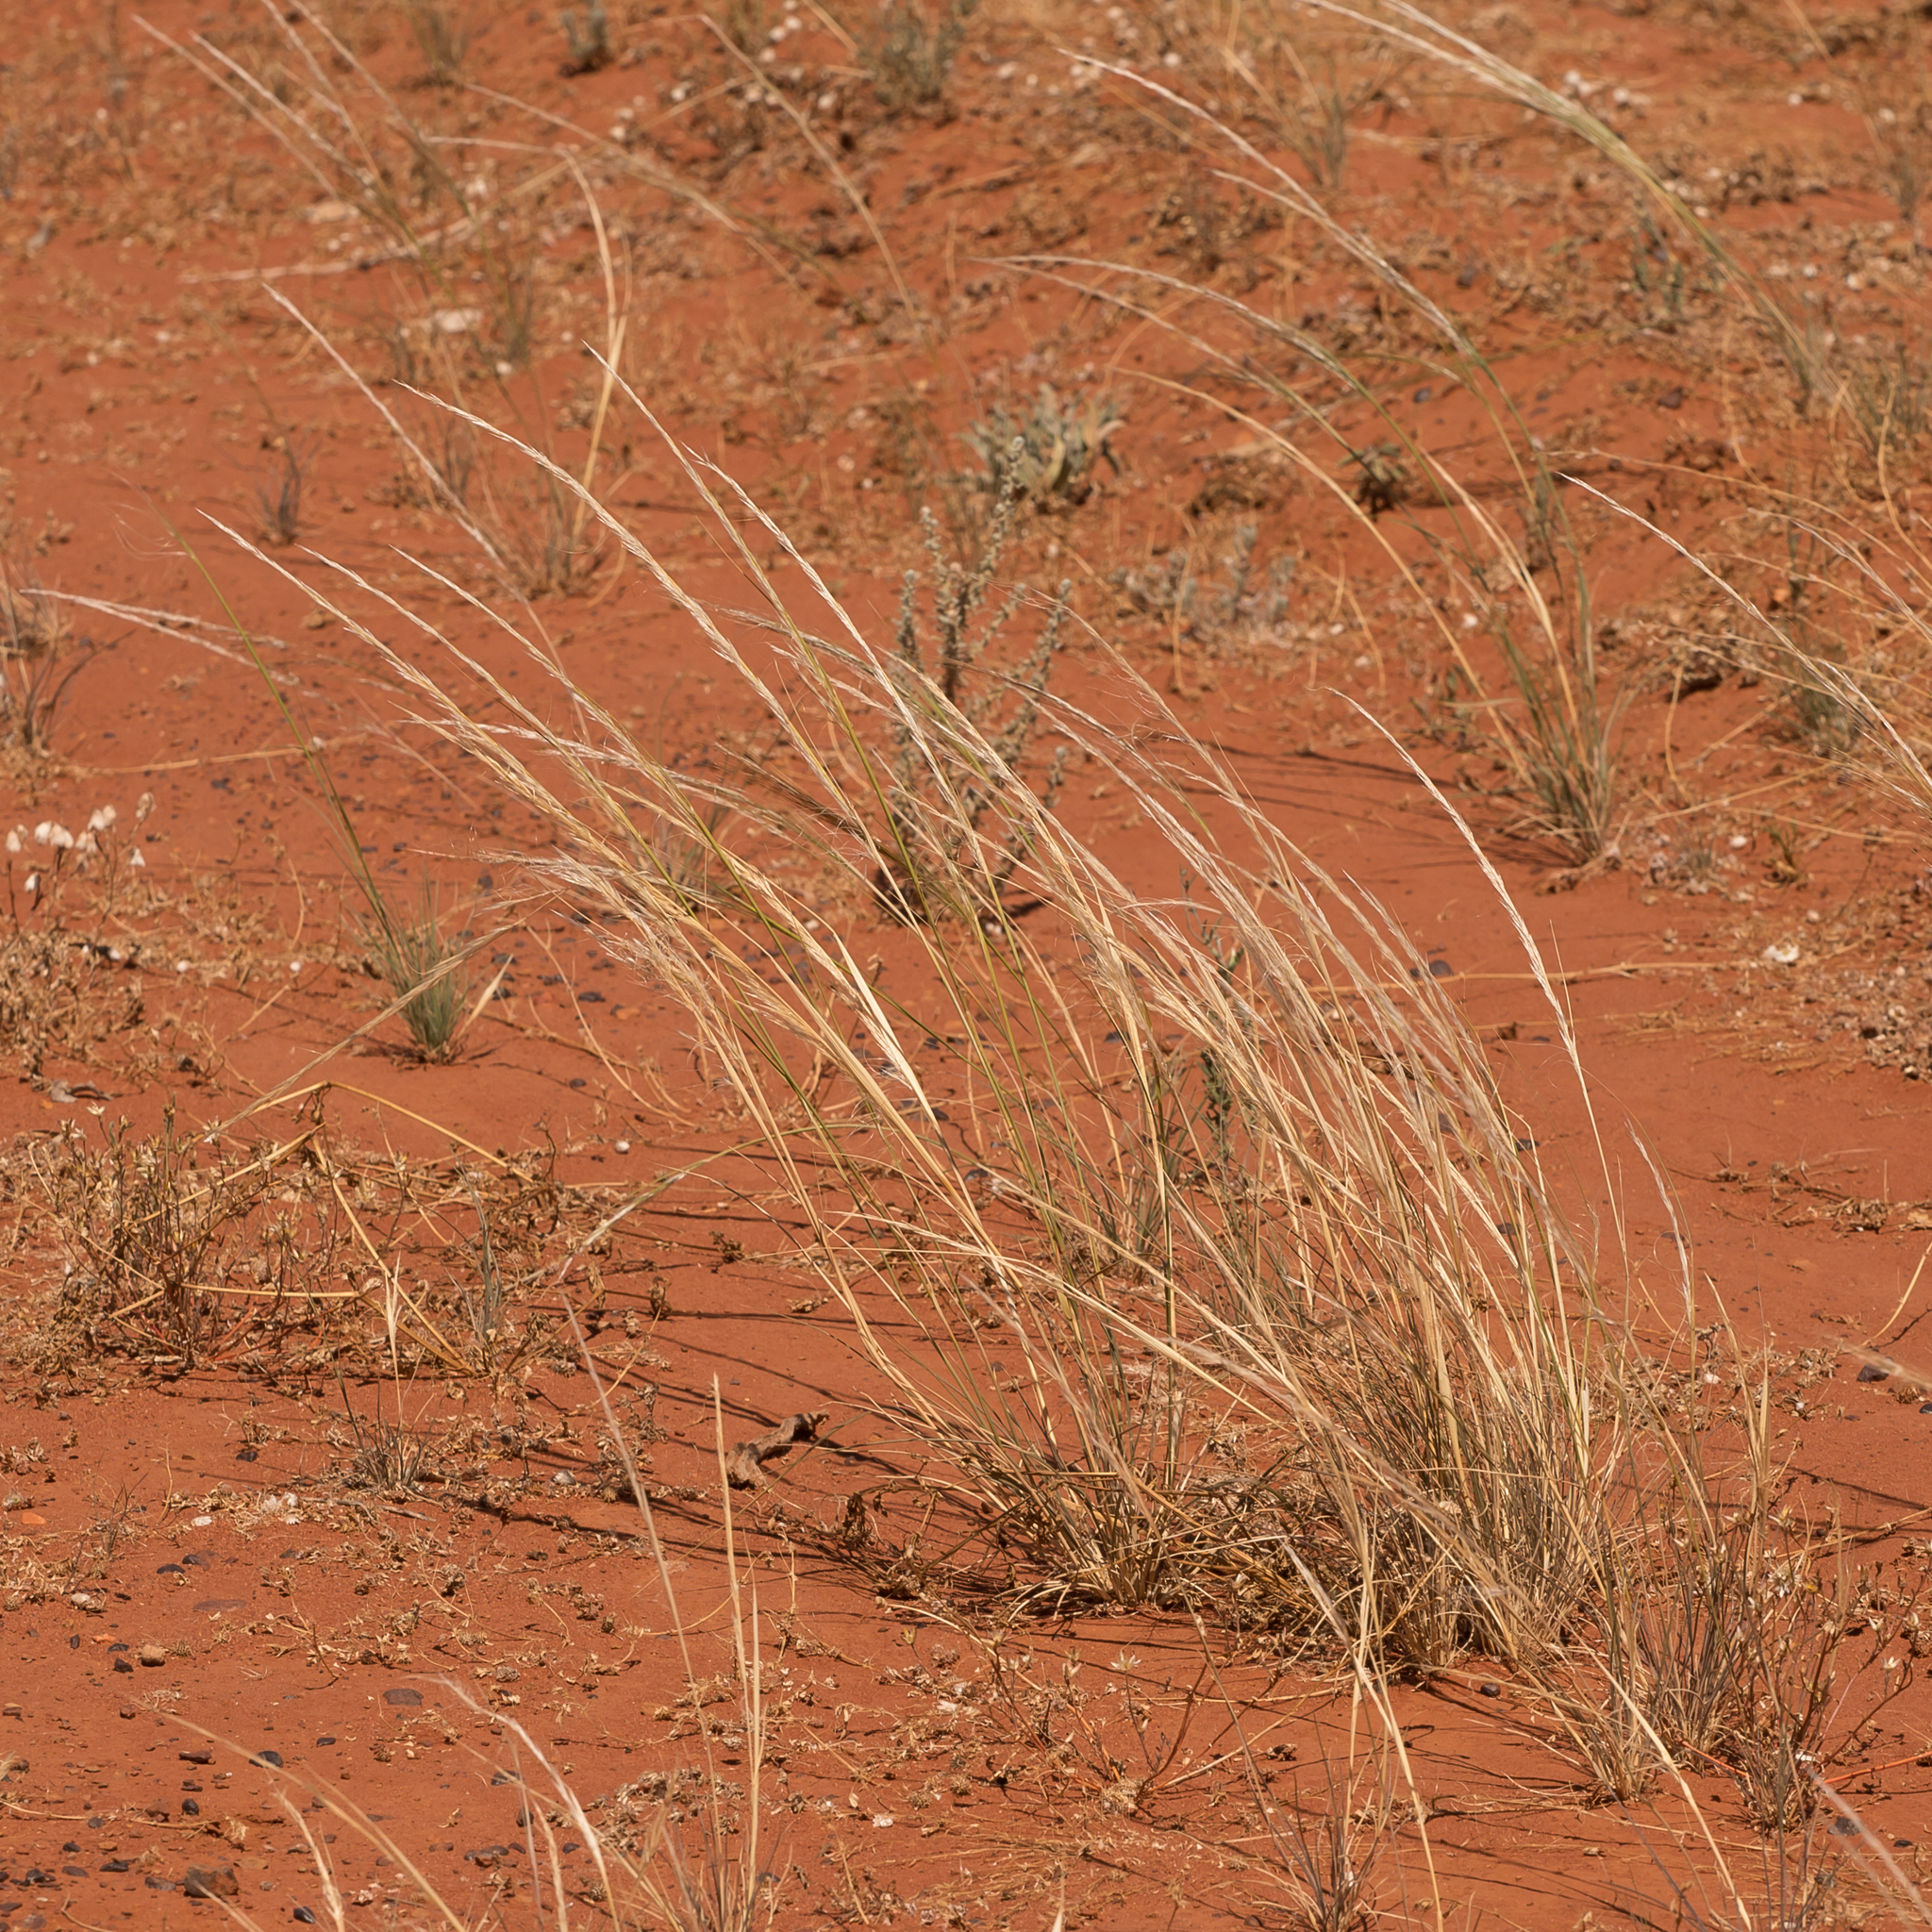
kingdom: Plantae
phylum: Tracheophyta
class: Liliopsida
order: Poales
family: Poaceae
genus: Austrostipa
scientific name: Austrostipa nitida
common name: Balcarra grass
